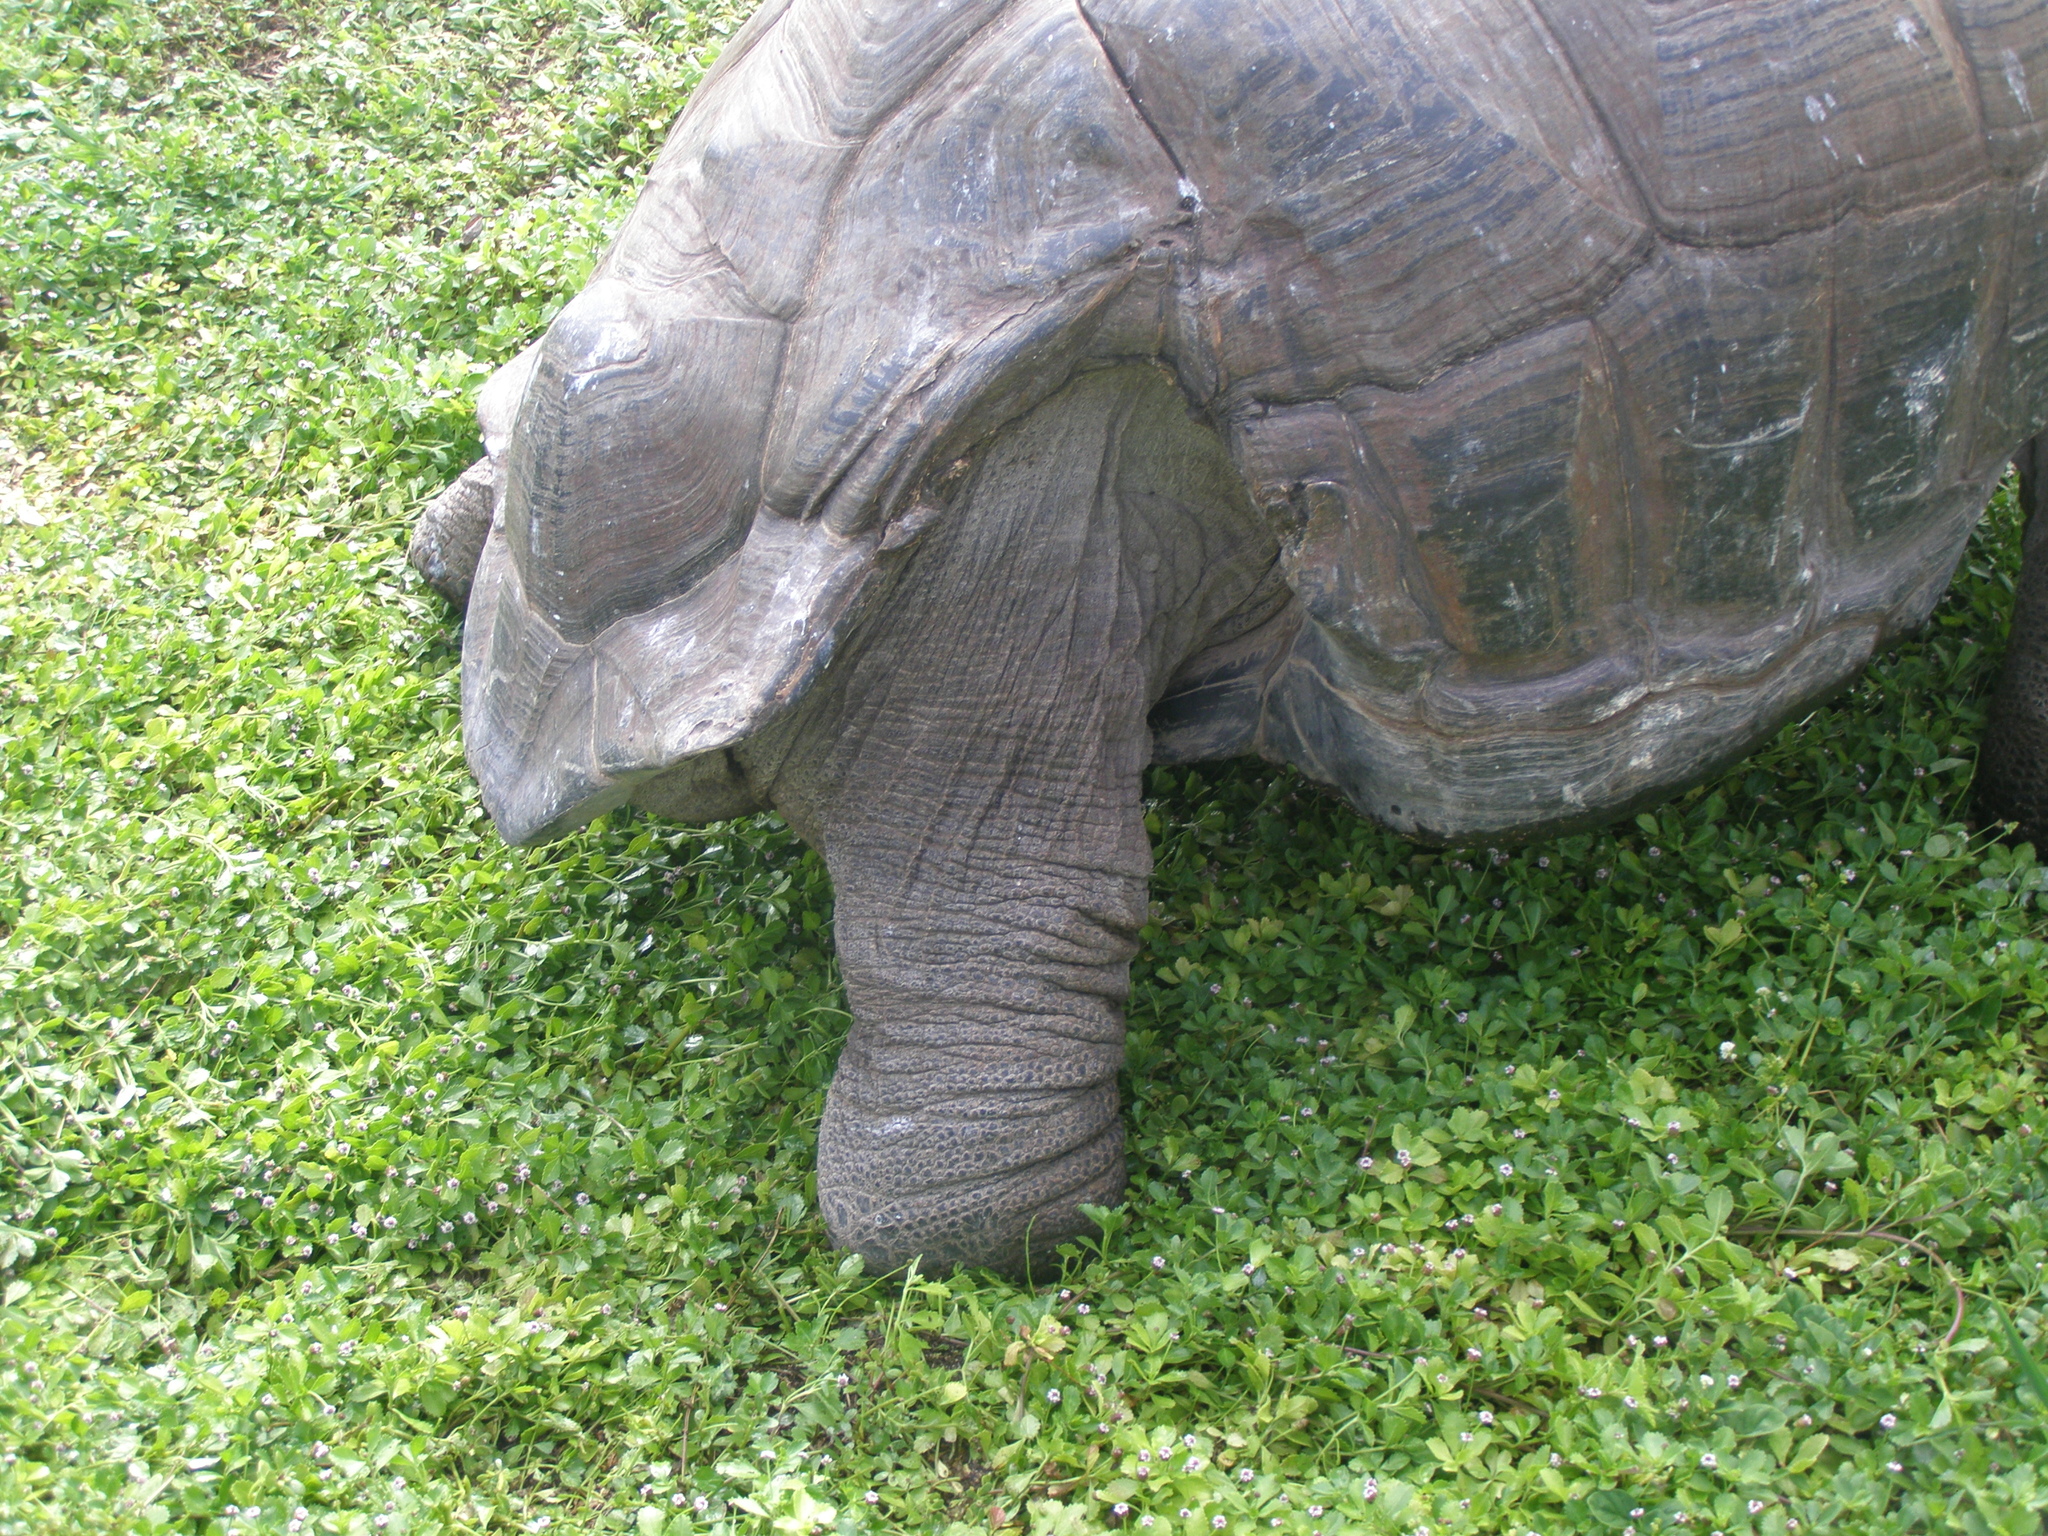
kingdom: Animalia
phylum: Chordata
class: Testudines
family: Testudinidae
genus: Aldabrachelys
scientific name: Aldabrachelys gigantea
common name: Aldabra giant tortoise
